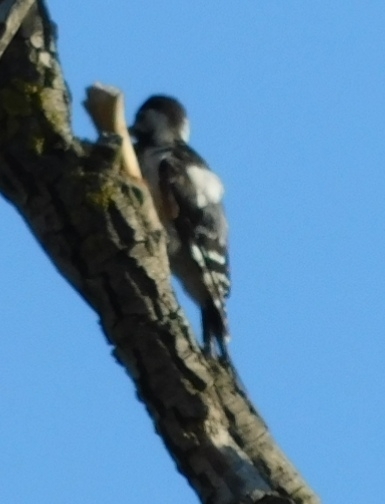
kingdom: Animalia
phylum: Chordata
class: Aves
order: Piciformes
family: Picidae
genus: Dendrocopos
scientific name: Dendrocopos syriacus
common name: Syrian woodpecker
